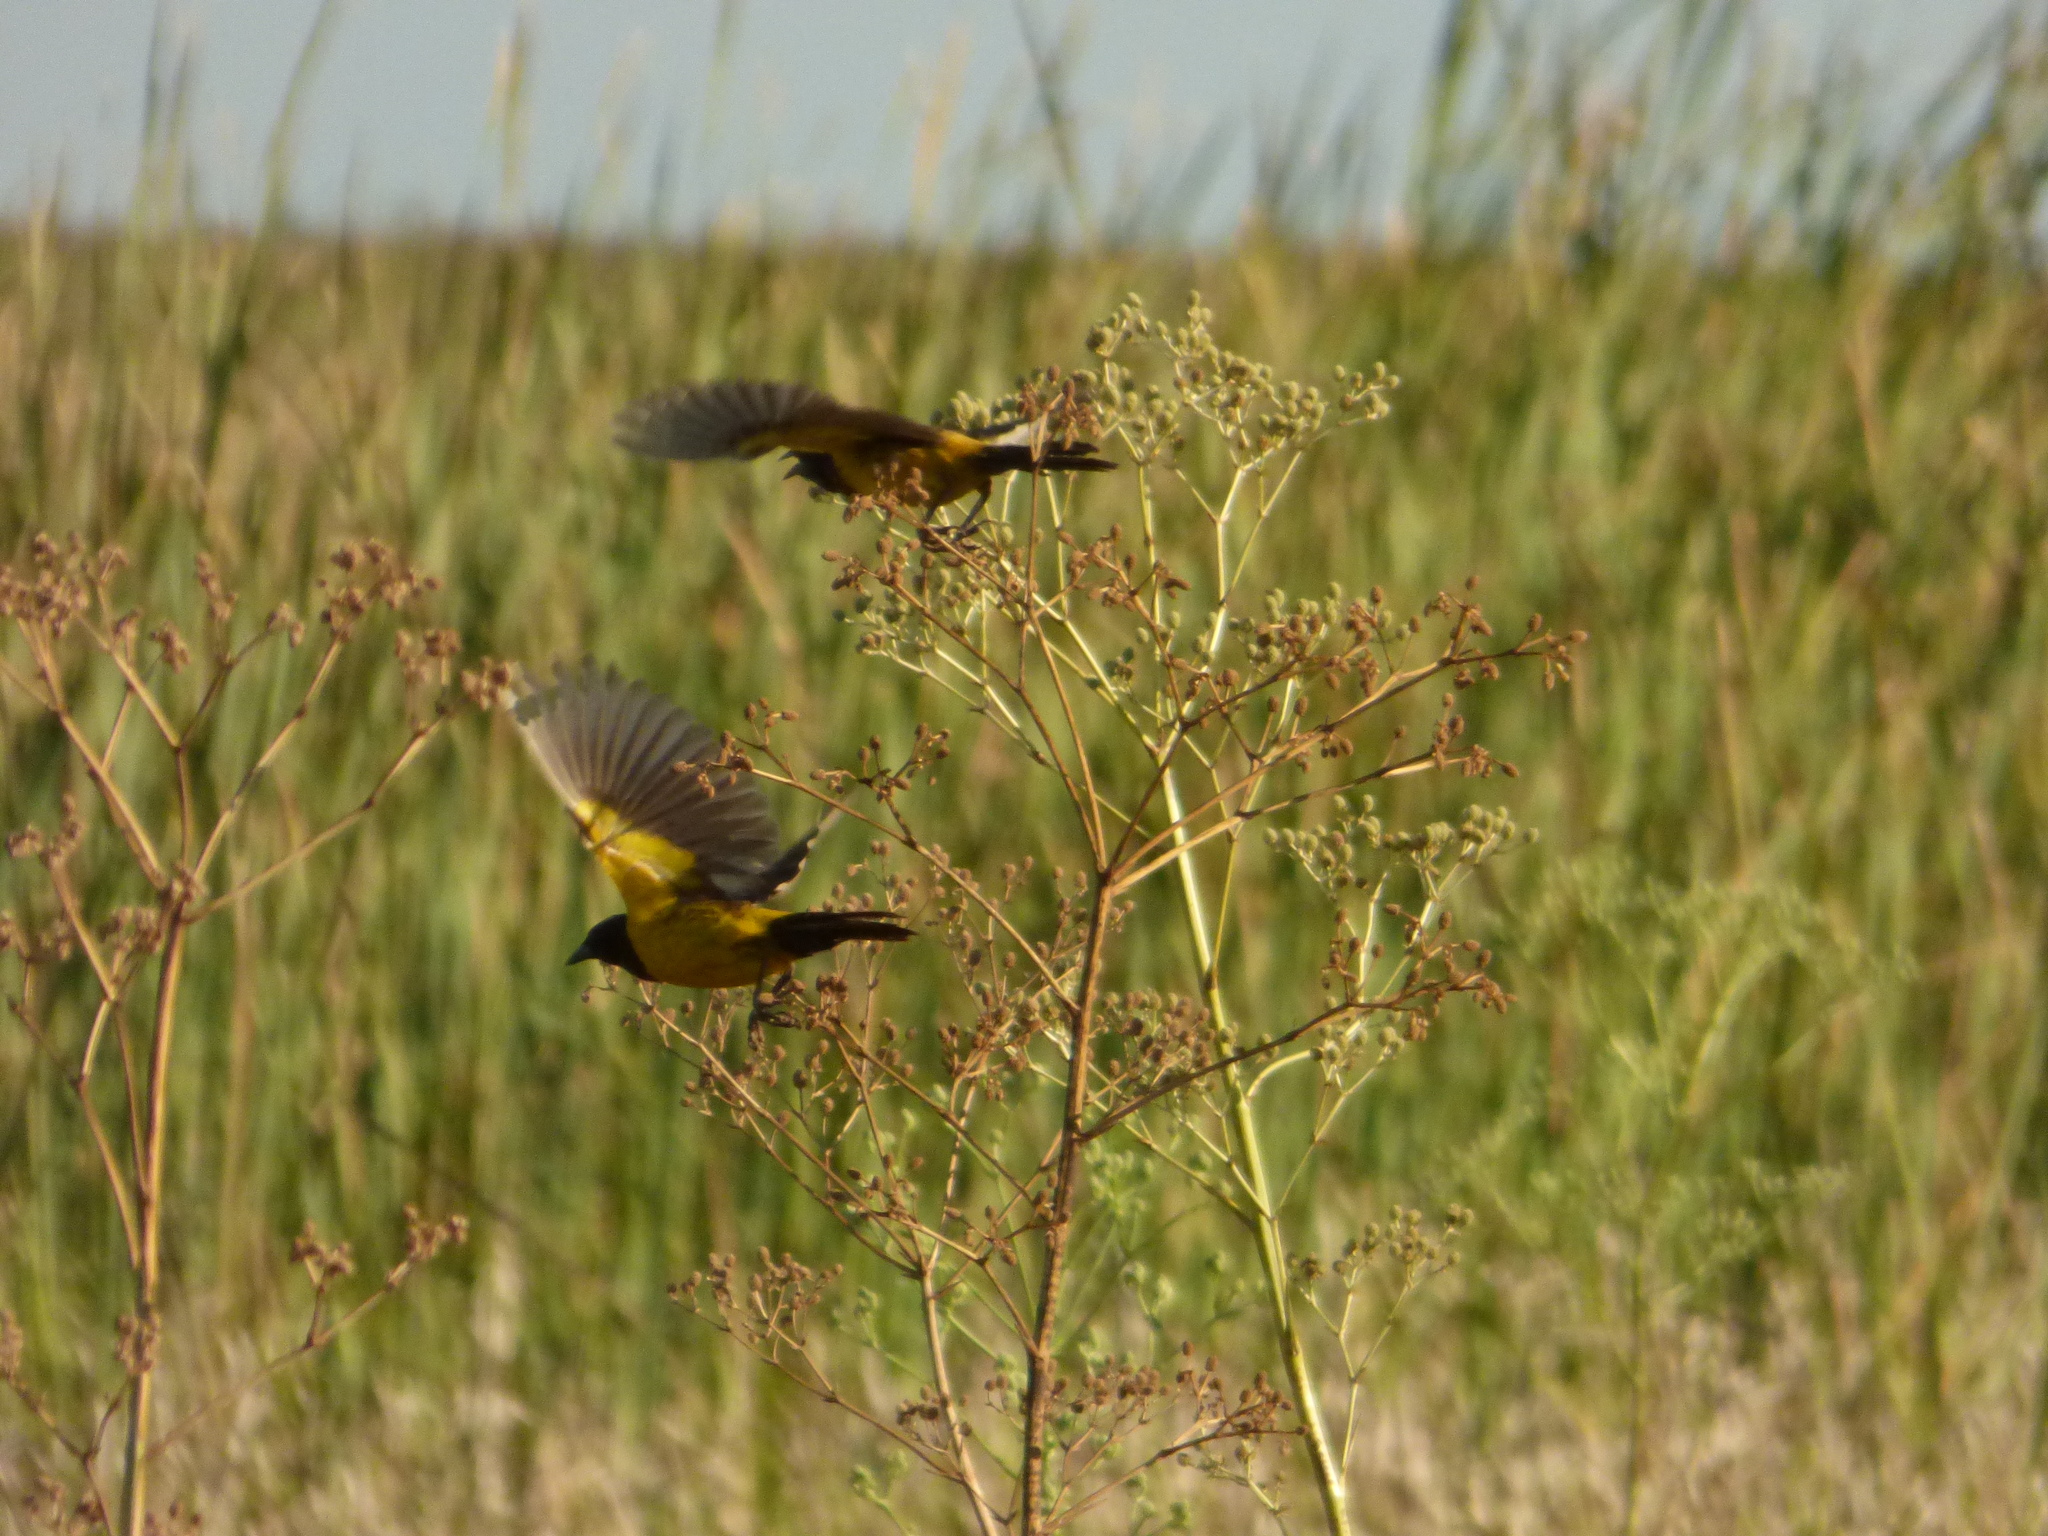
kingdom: Animalia
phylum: Chordata
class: Aves
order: Passeriformes
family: Icteridae
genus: Pseudoleistes
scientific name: Pseudoleistes guirahuro
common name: Yellow-rumped marshbird
